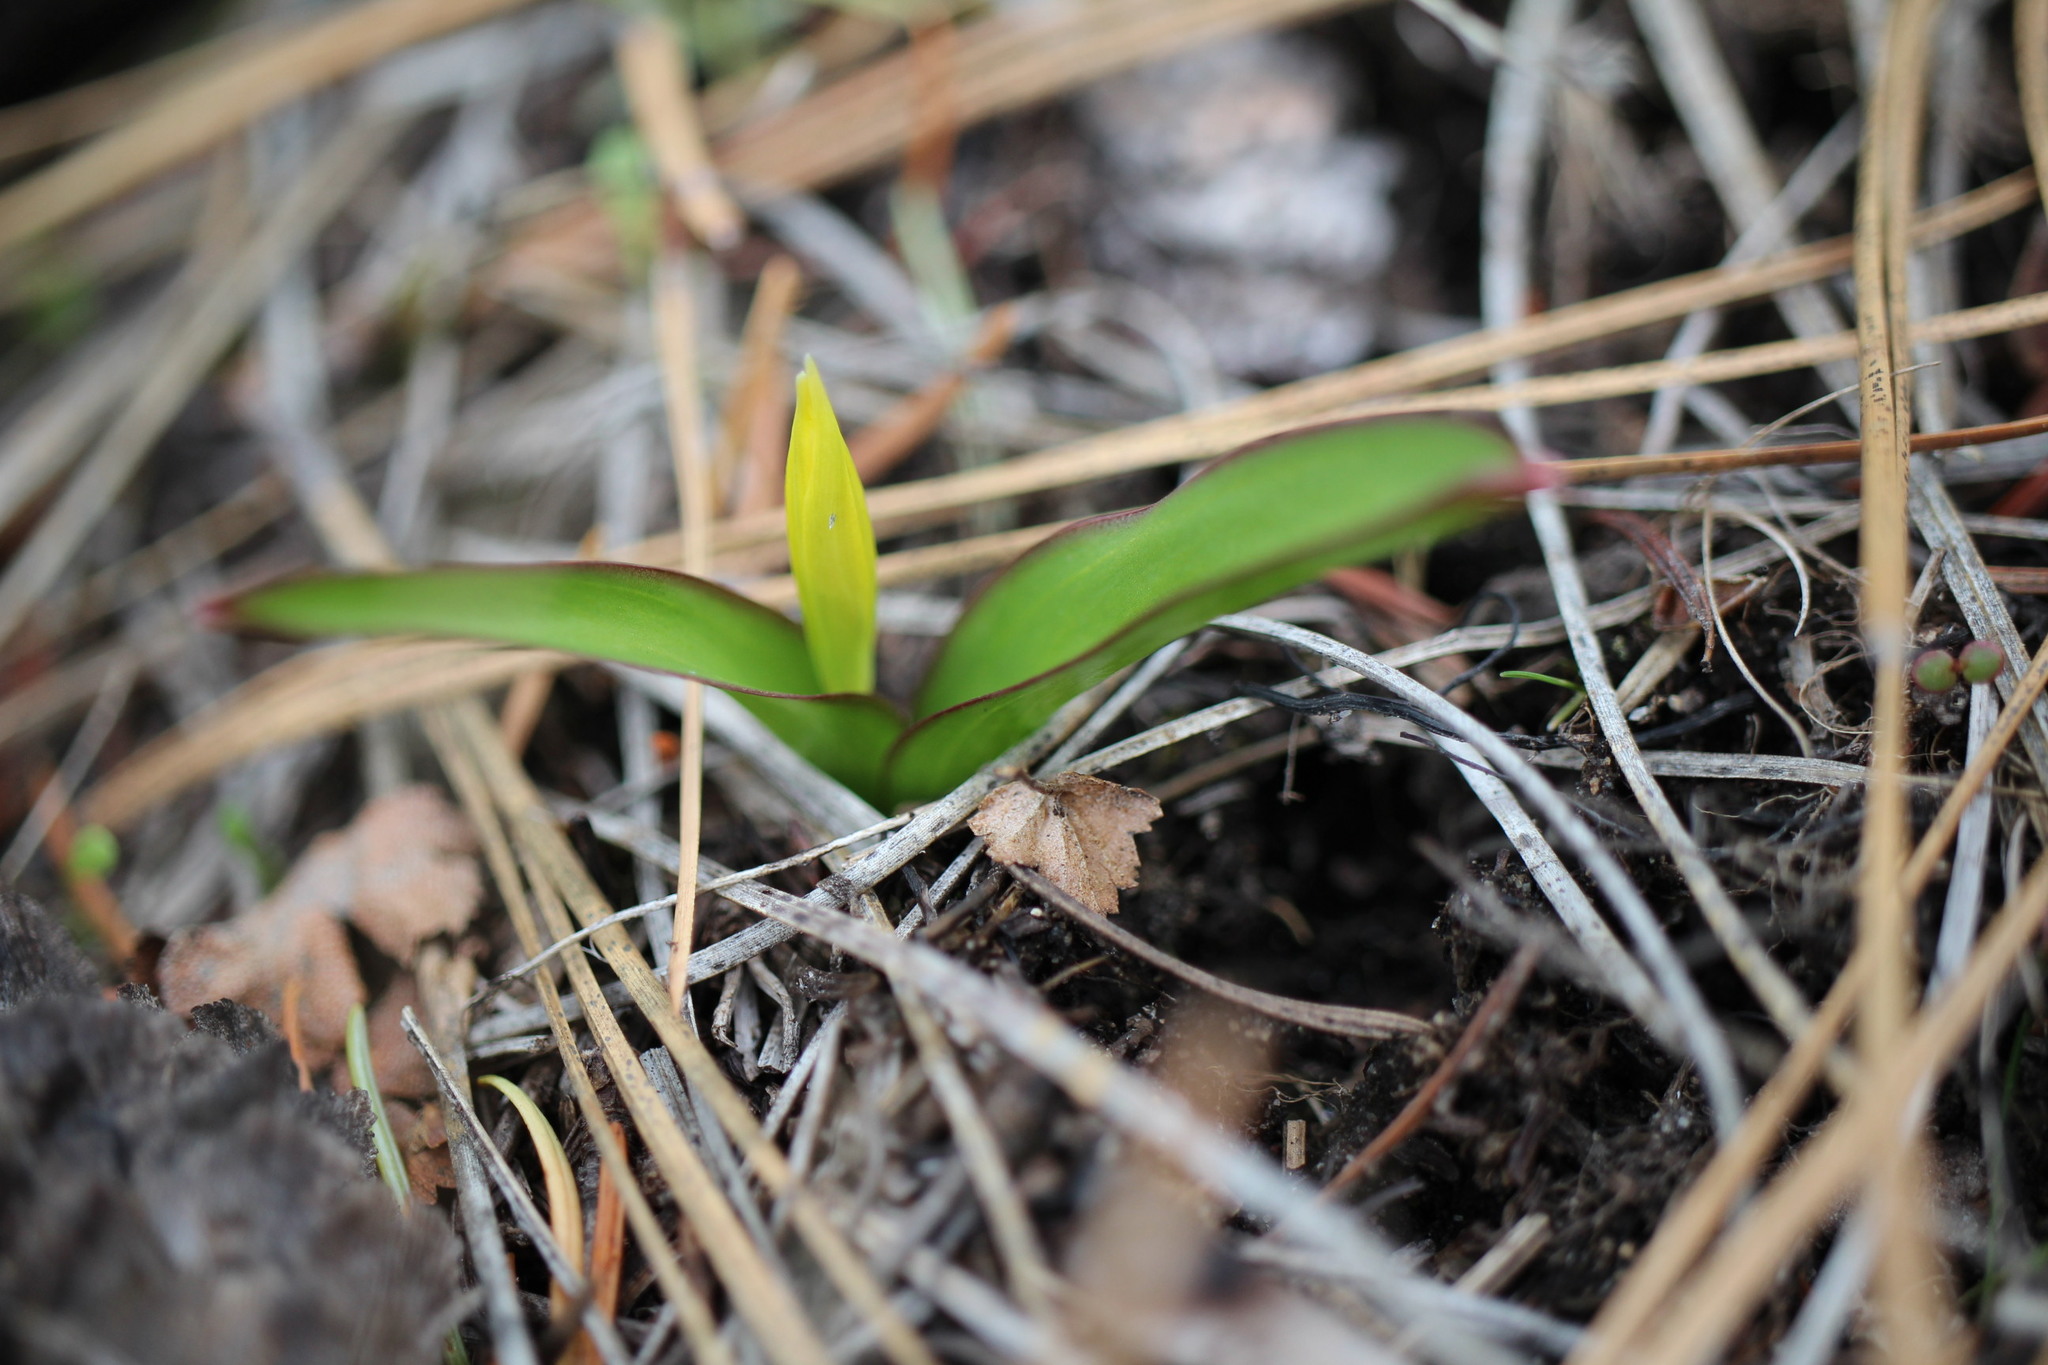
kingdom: Plantae
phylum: Tracheophyta
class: Liliopsida
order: Liliales
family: Liliaceae
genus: Erythronium
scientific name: Erythronium grandiflorum
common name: Avalanche-lily
